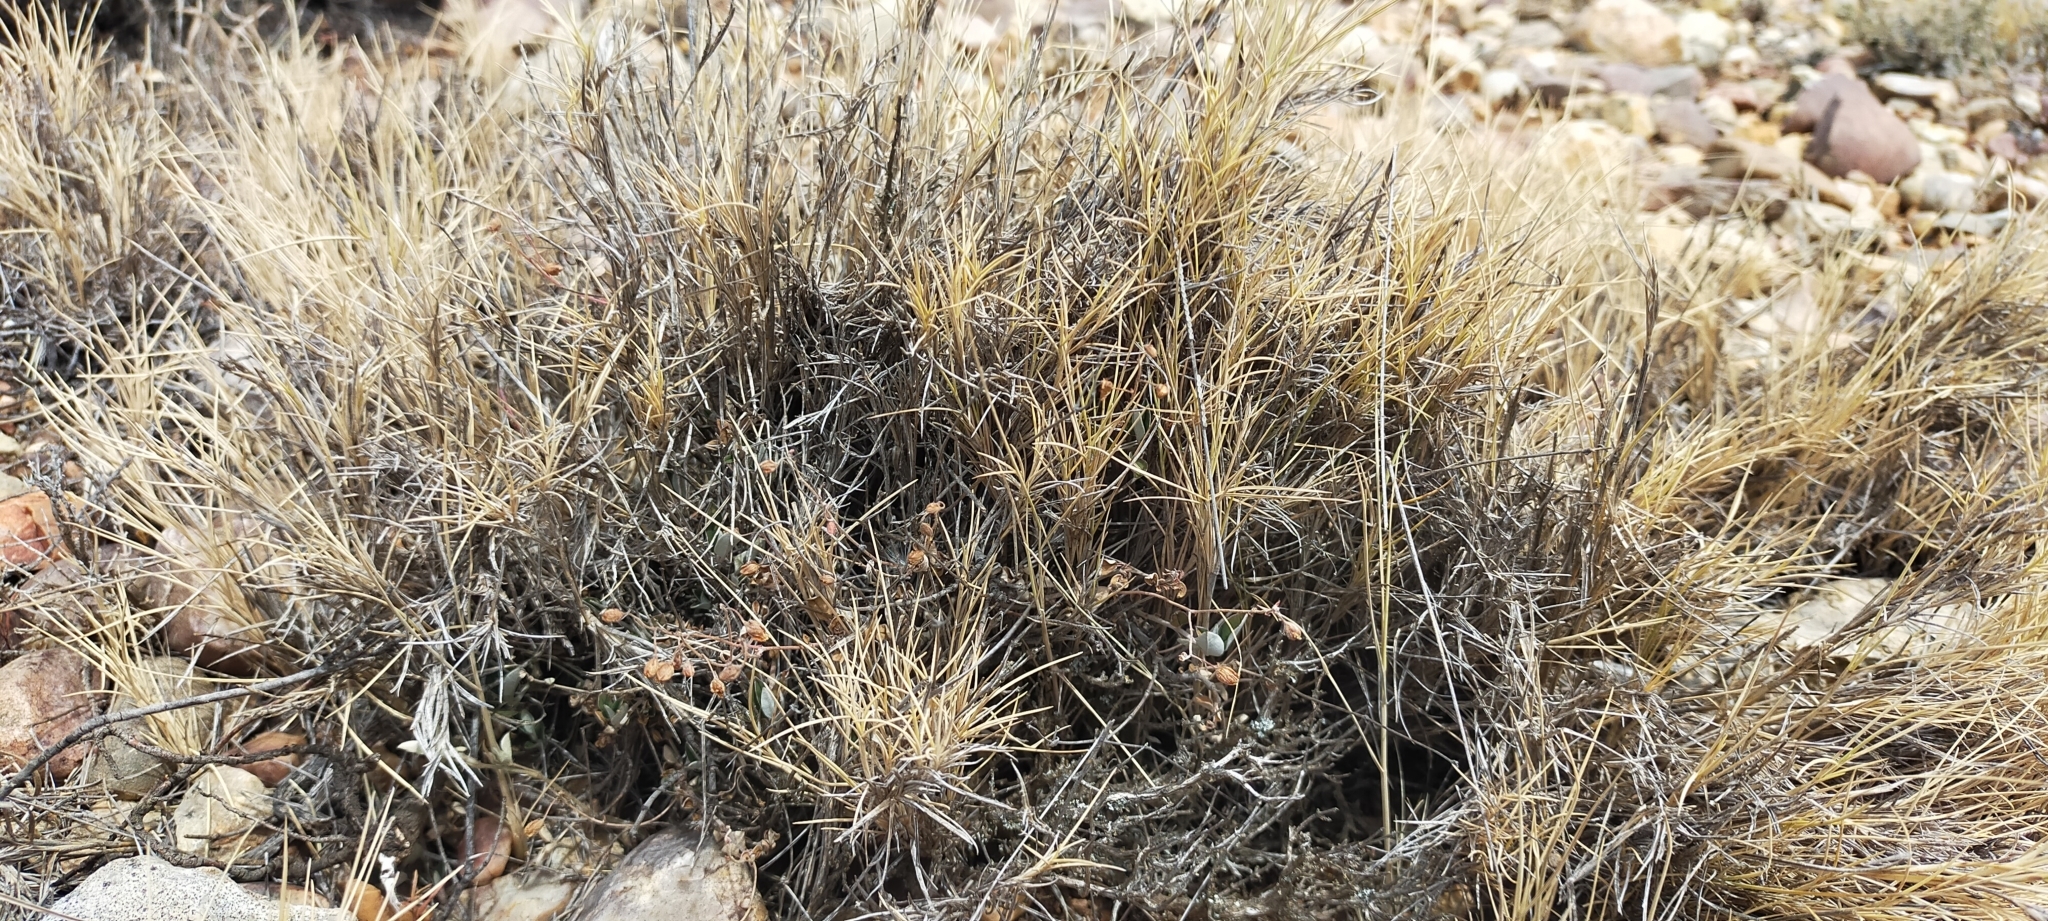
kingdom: Plantae
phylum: Tracheophyta
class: Liliopsida
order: Poales
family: Poaceae
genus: Brachypodium
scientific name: Brachypodium retusum
